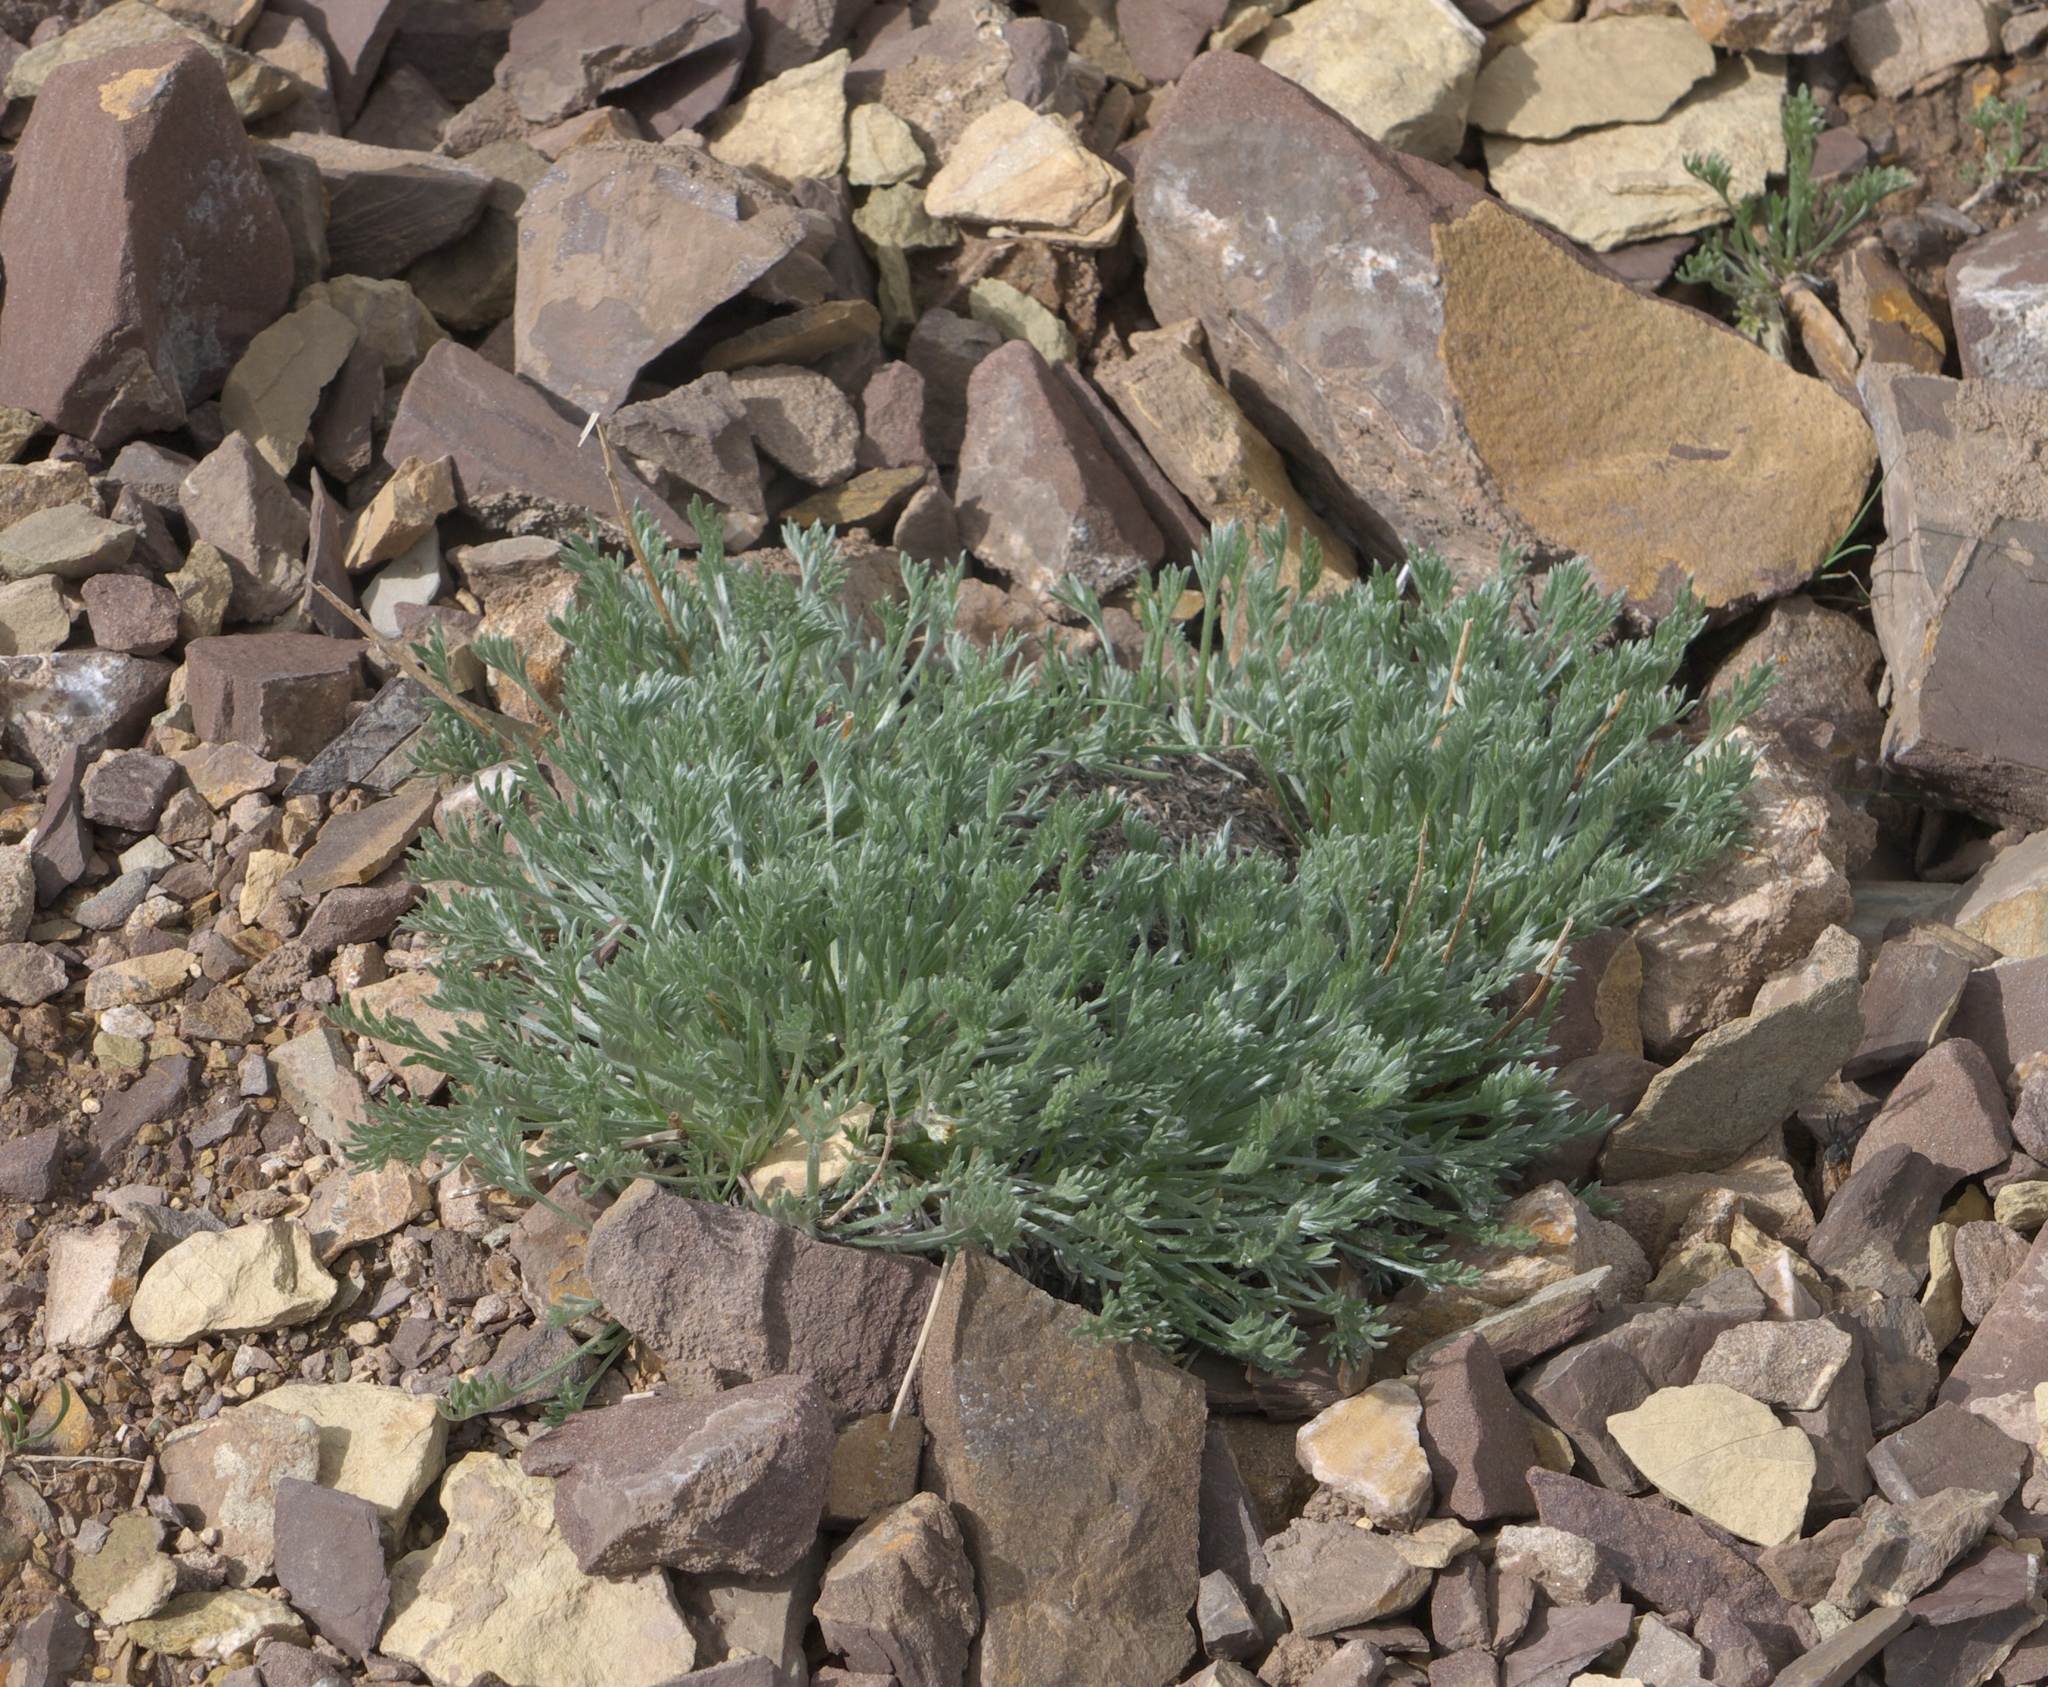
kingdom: Plantae
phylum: Tracheophyta
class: Magnoliopsida
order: Asterales
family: Asteraceae
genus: Artemisia
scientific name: Artemisia frigida
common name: Prairie sagewort
